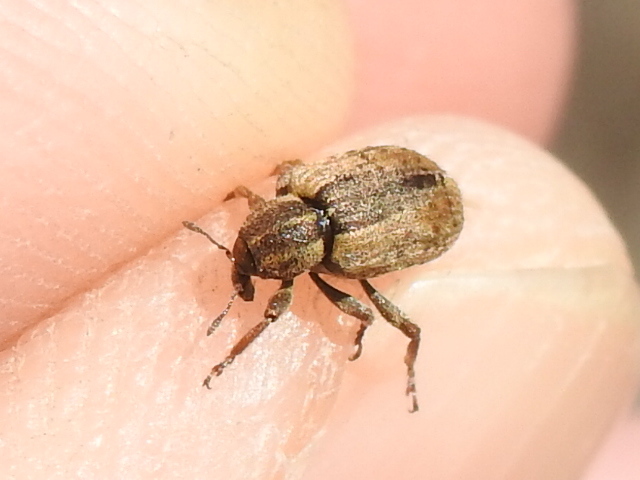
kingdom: Animalia
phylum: Arthropoda
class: Insecta
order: Coleoptera
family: Curculionidae
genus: Hypera
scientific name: Hypera postica
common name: Weevil
